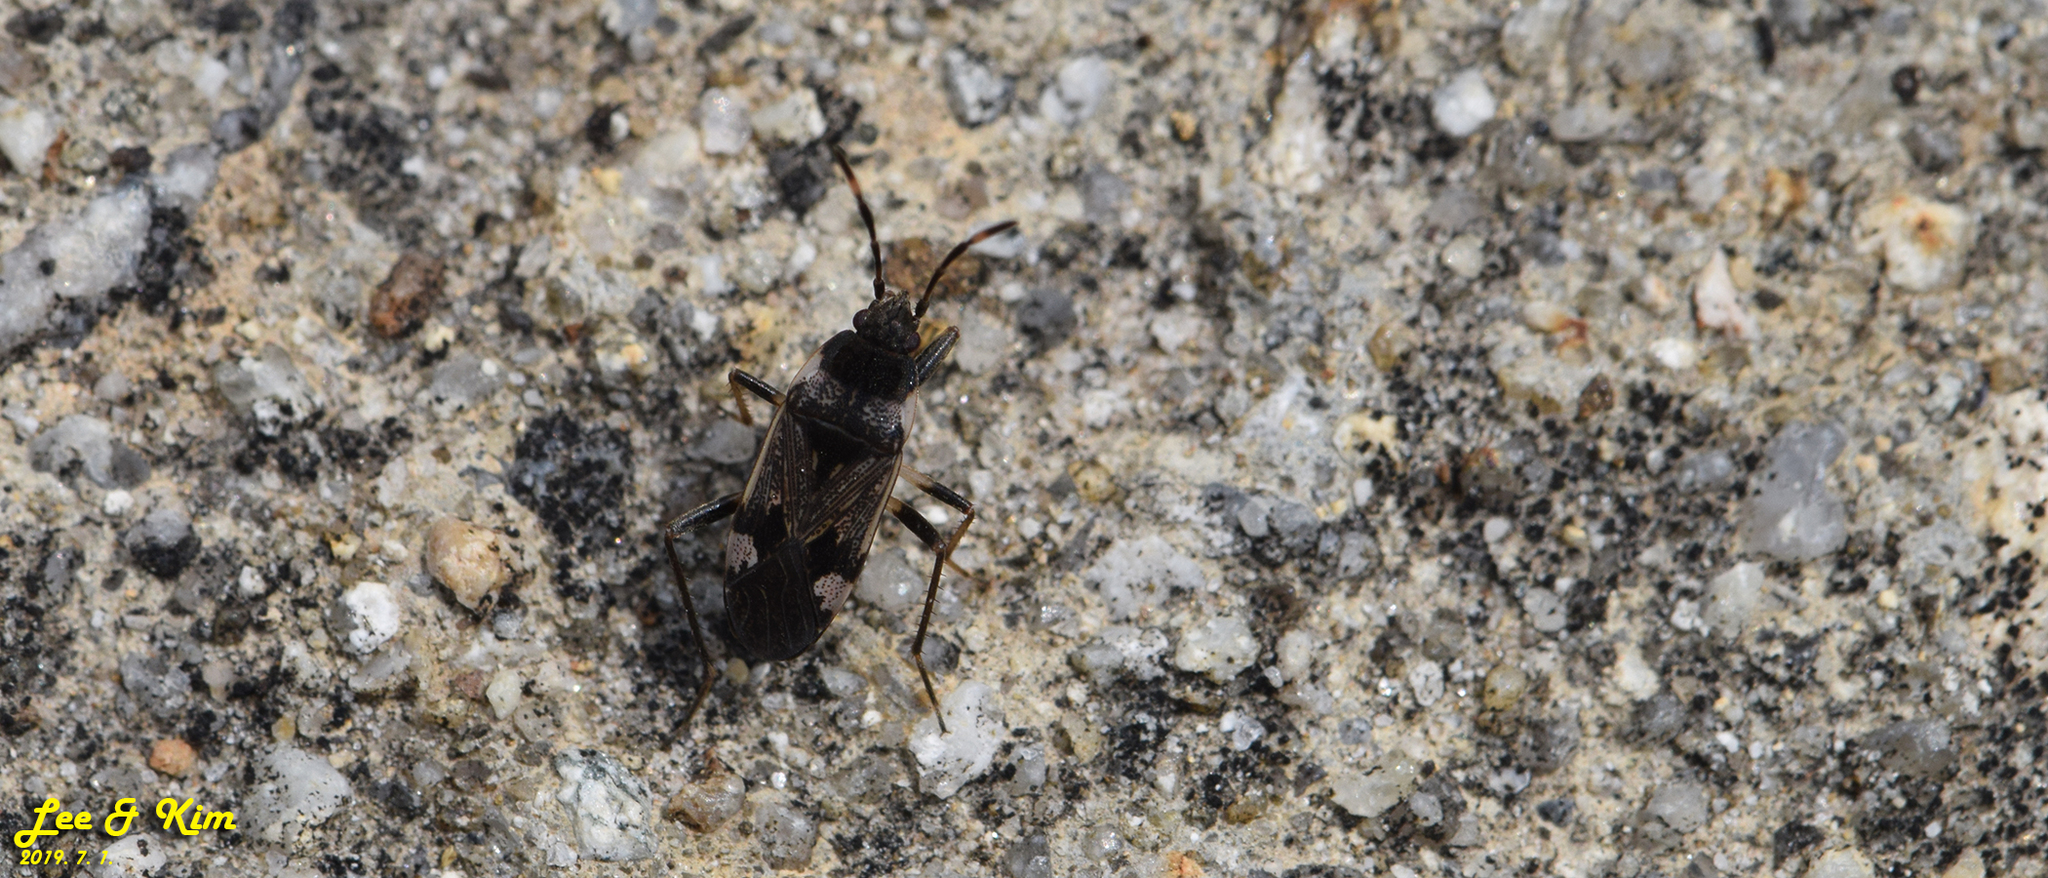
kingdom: Animalia
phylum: Arthropoda
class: Insecta
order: Hemiptera
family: Rhyparochromidae
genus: Panaorus
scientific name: Panaorus csikii
